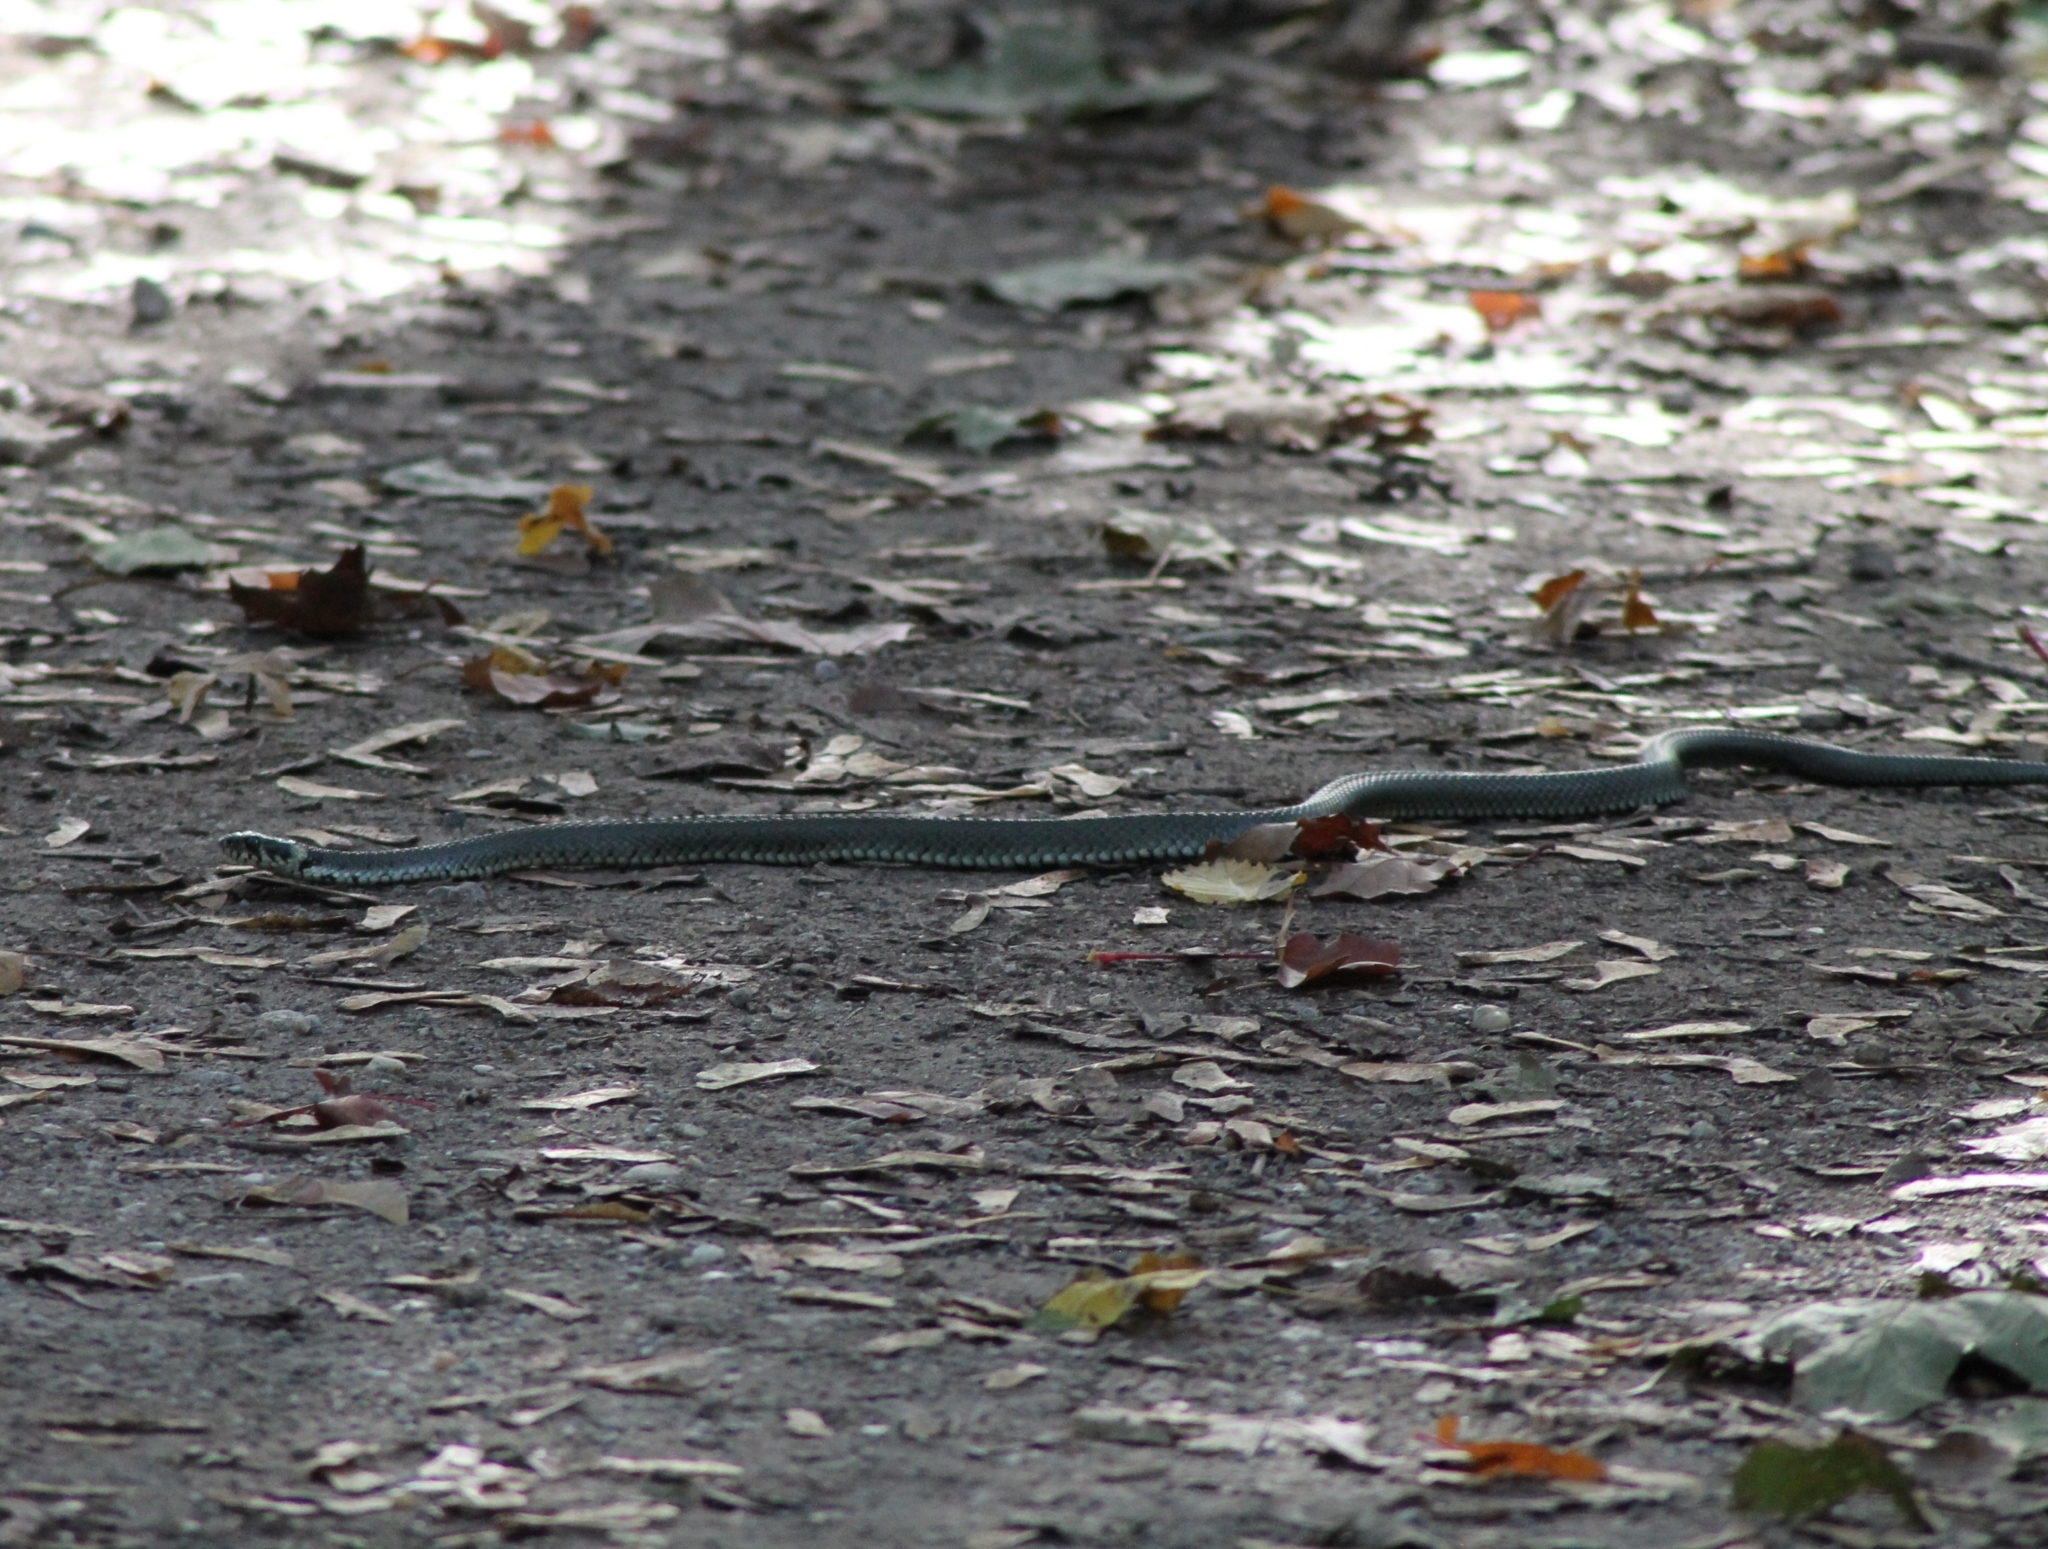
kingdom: Animalia
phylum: Chordata
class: Squamata
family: Colubridae
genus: Natrix
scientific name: Natrix natrix
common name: Grass snake
